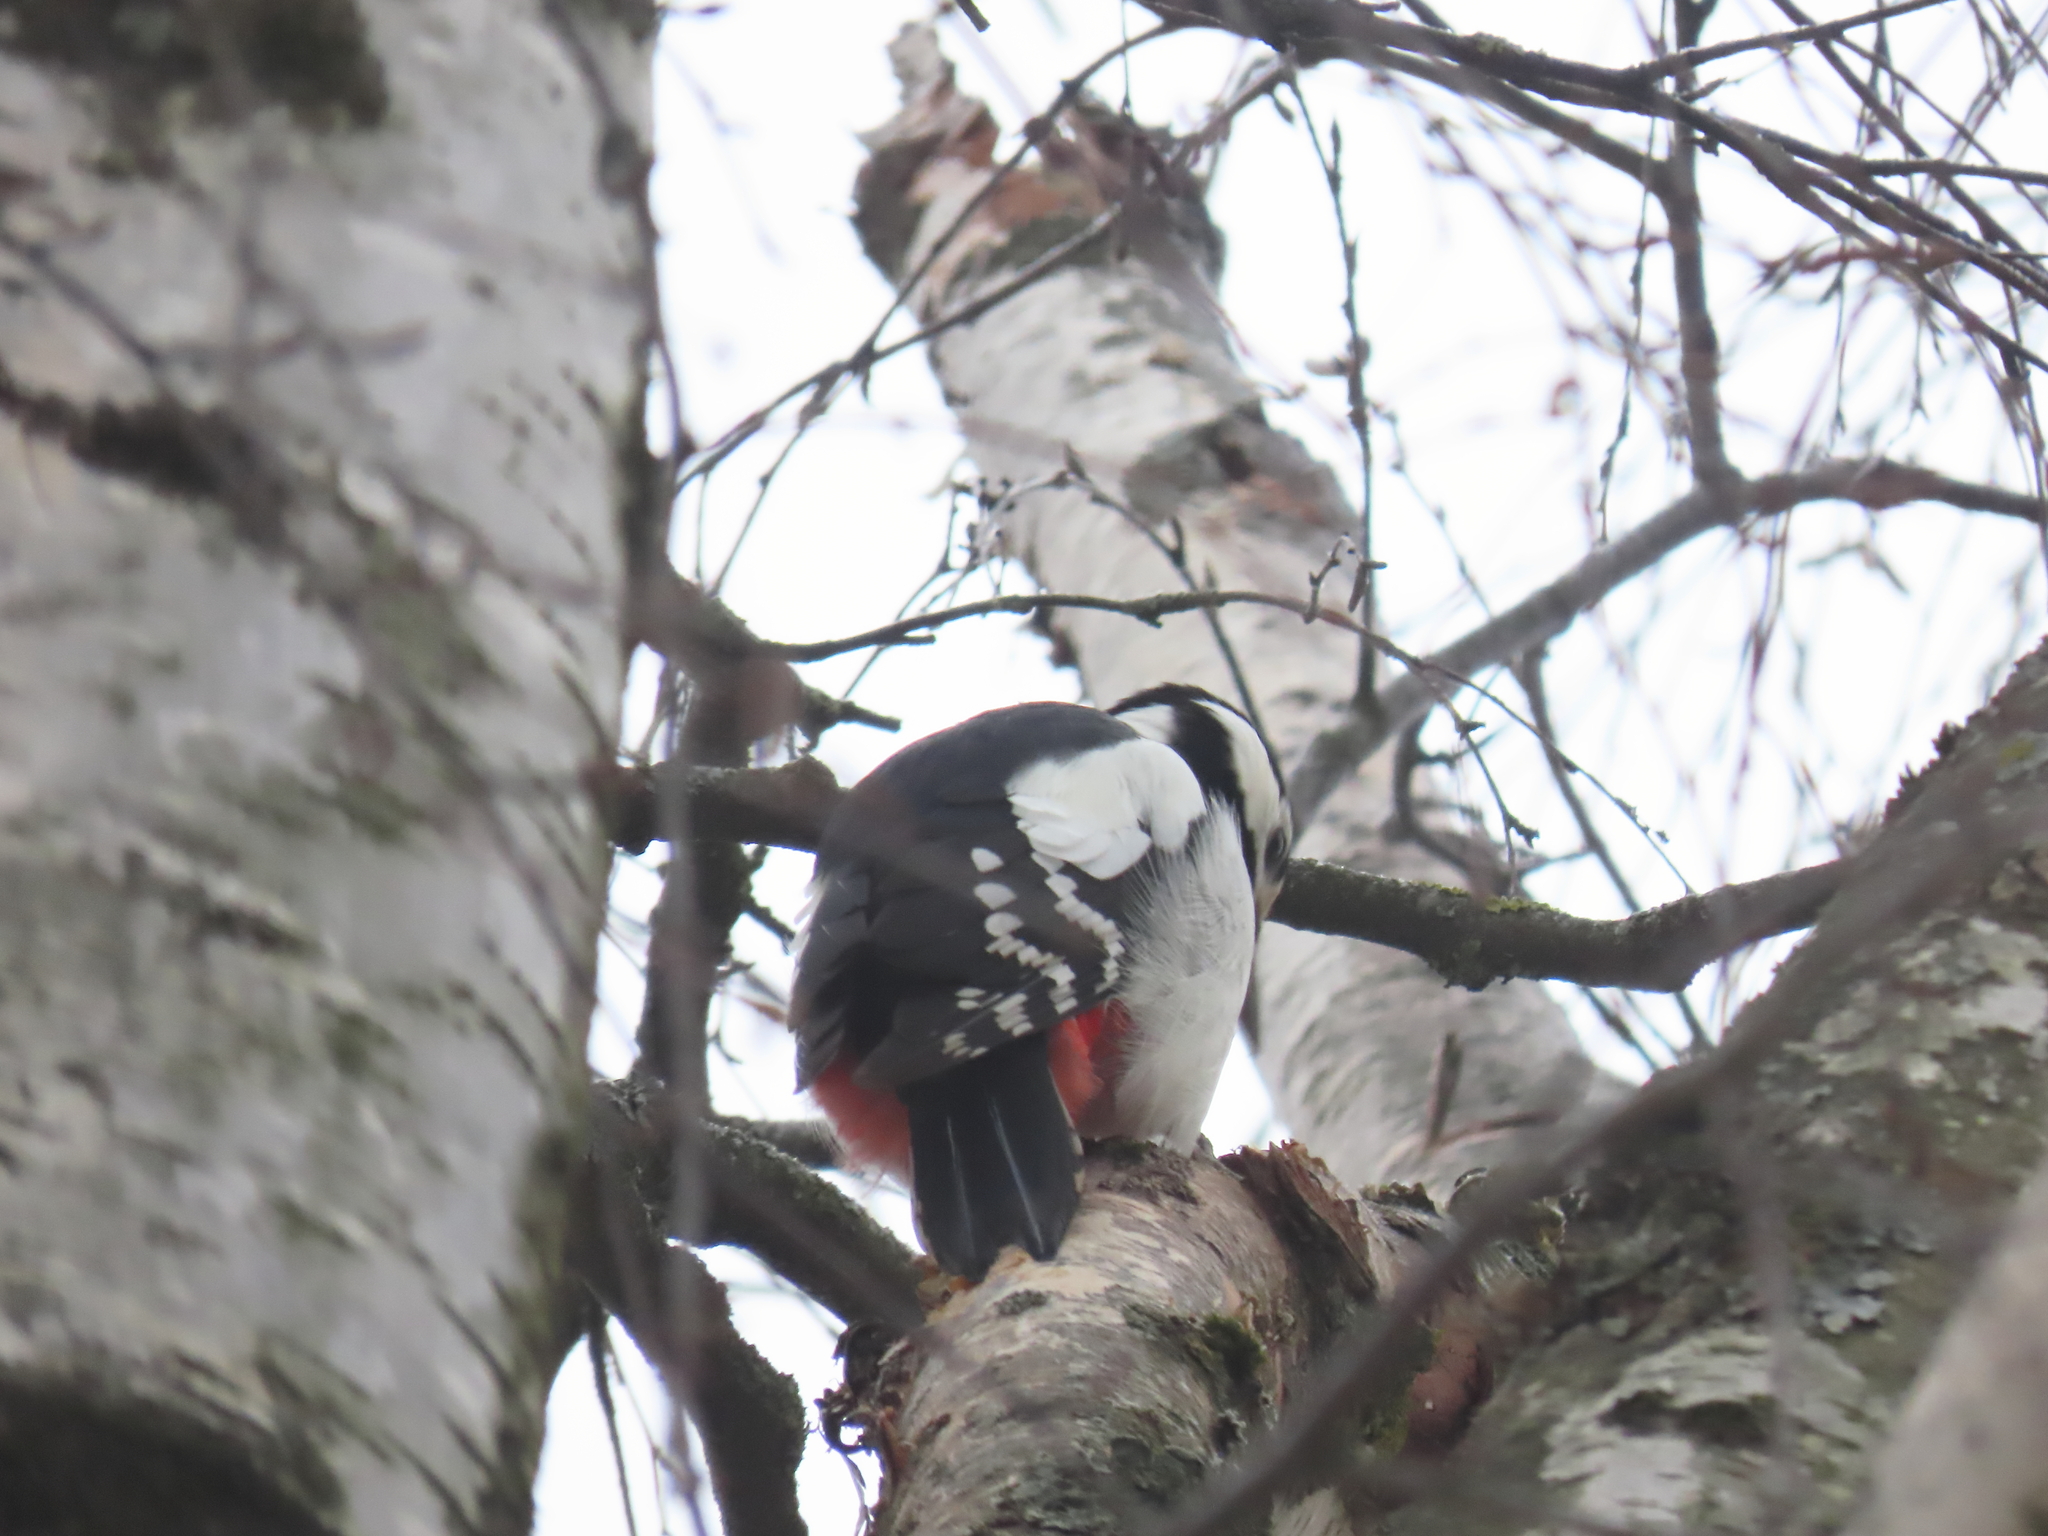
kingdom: Animalia
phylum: Chordata
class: Aves
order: Piciformes
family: Picidae
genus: Dendrocopos
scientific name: Dendrocopos major
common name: Great spotted woodpecker
